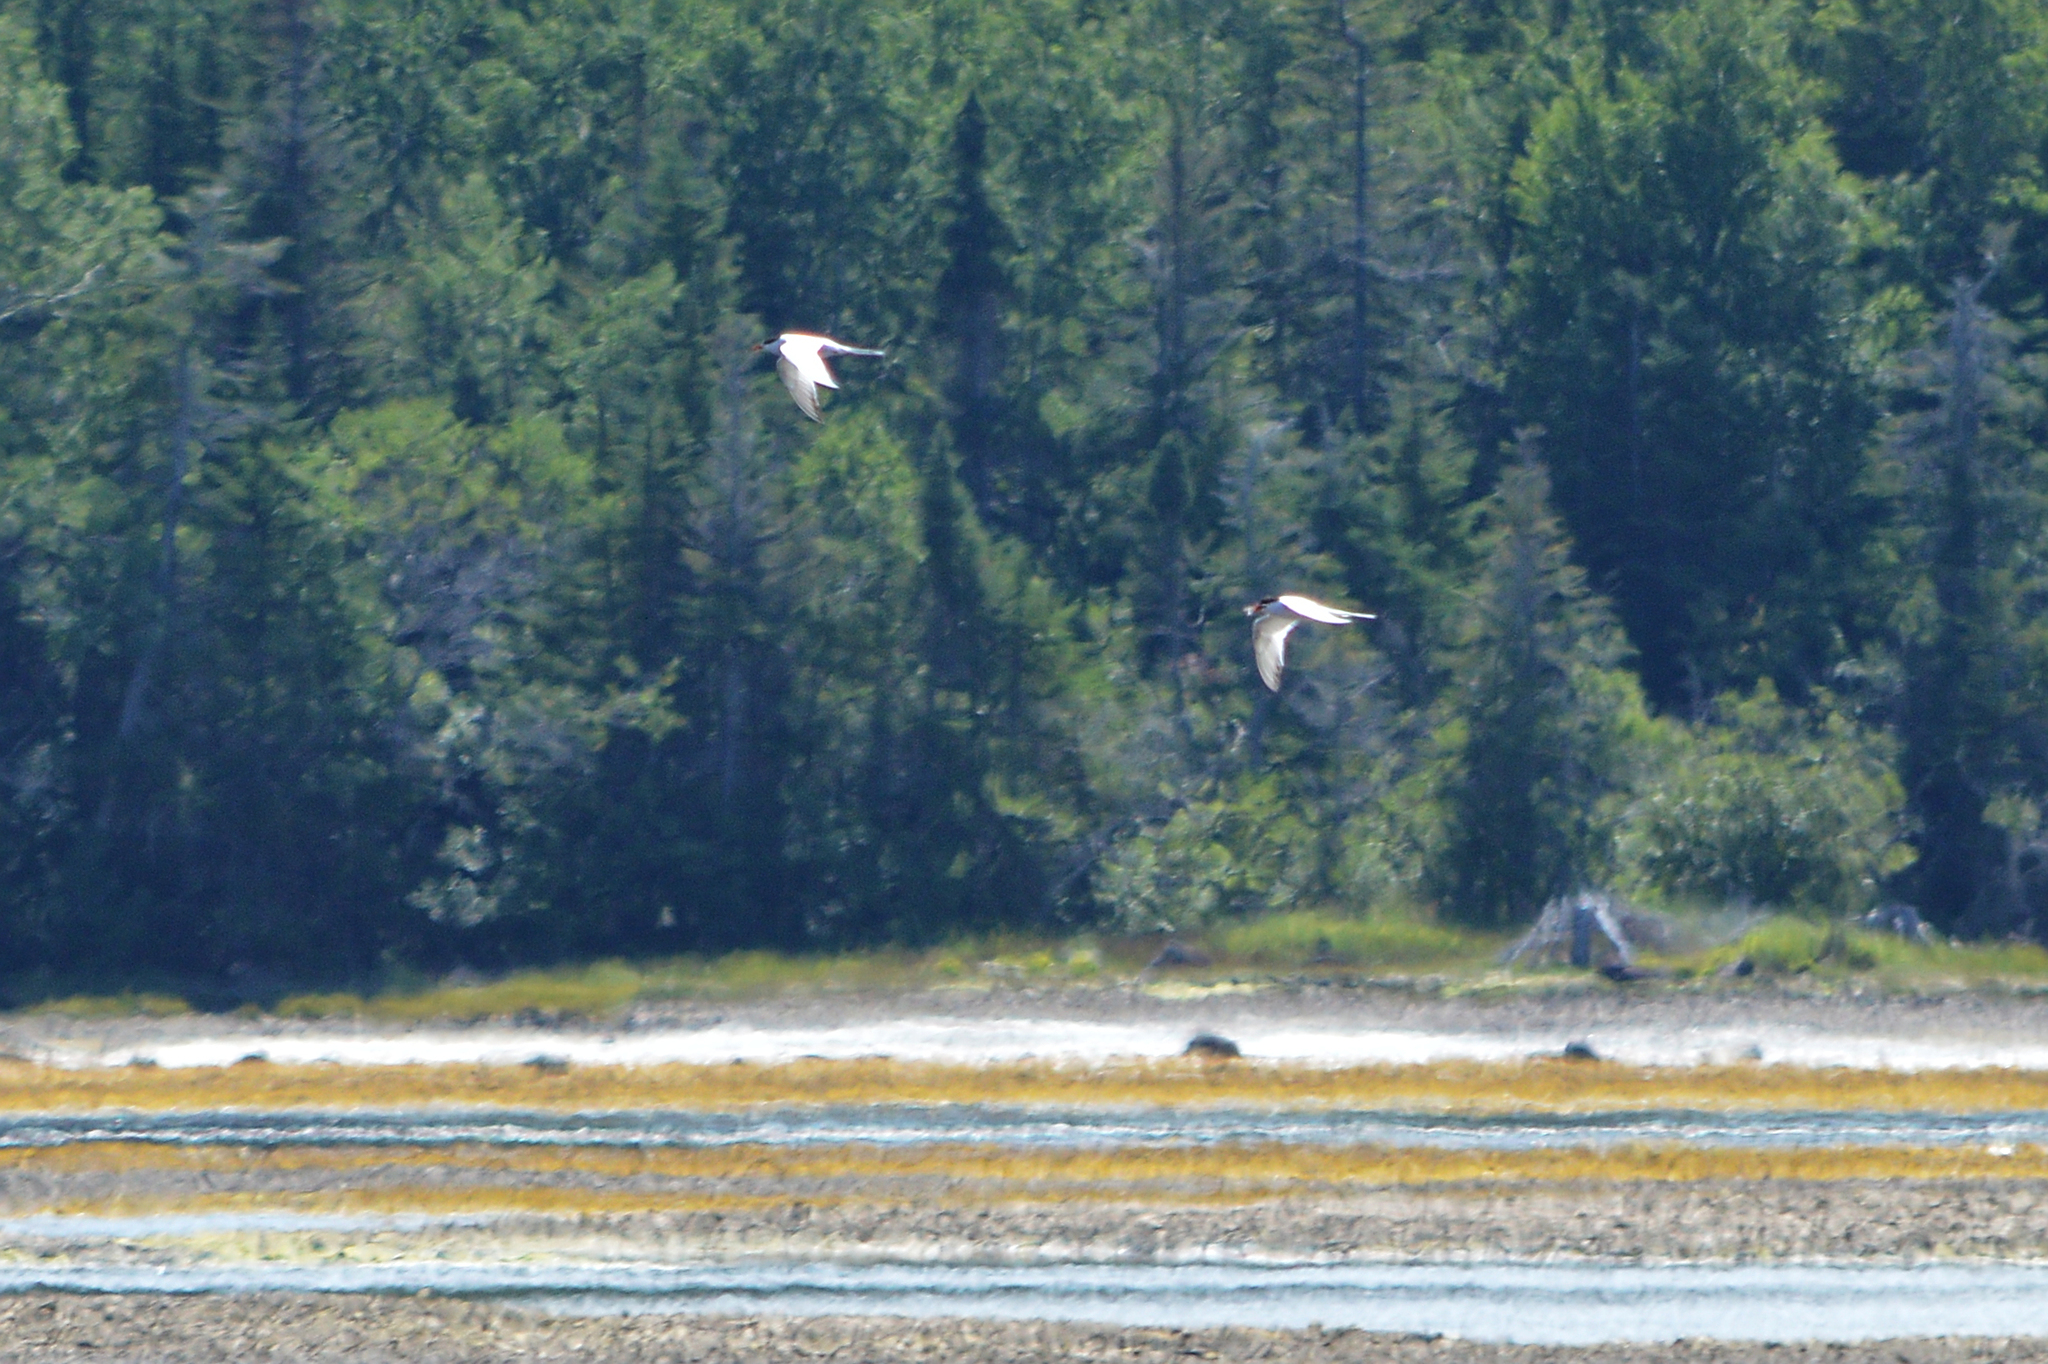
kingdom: Animalia
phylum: Chordata
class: Aves
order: Charadriiformes
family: Laridae
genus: Sterna
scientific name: Sterna hirundo
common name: Common tern
